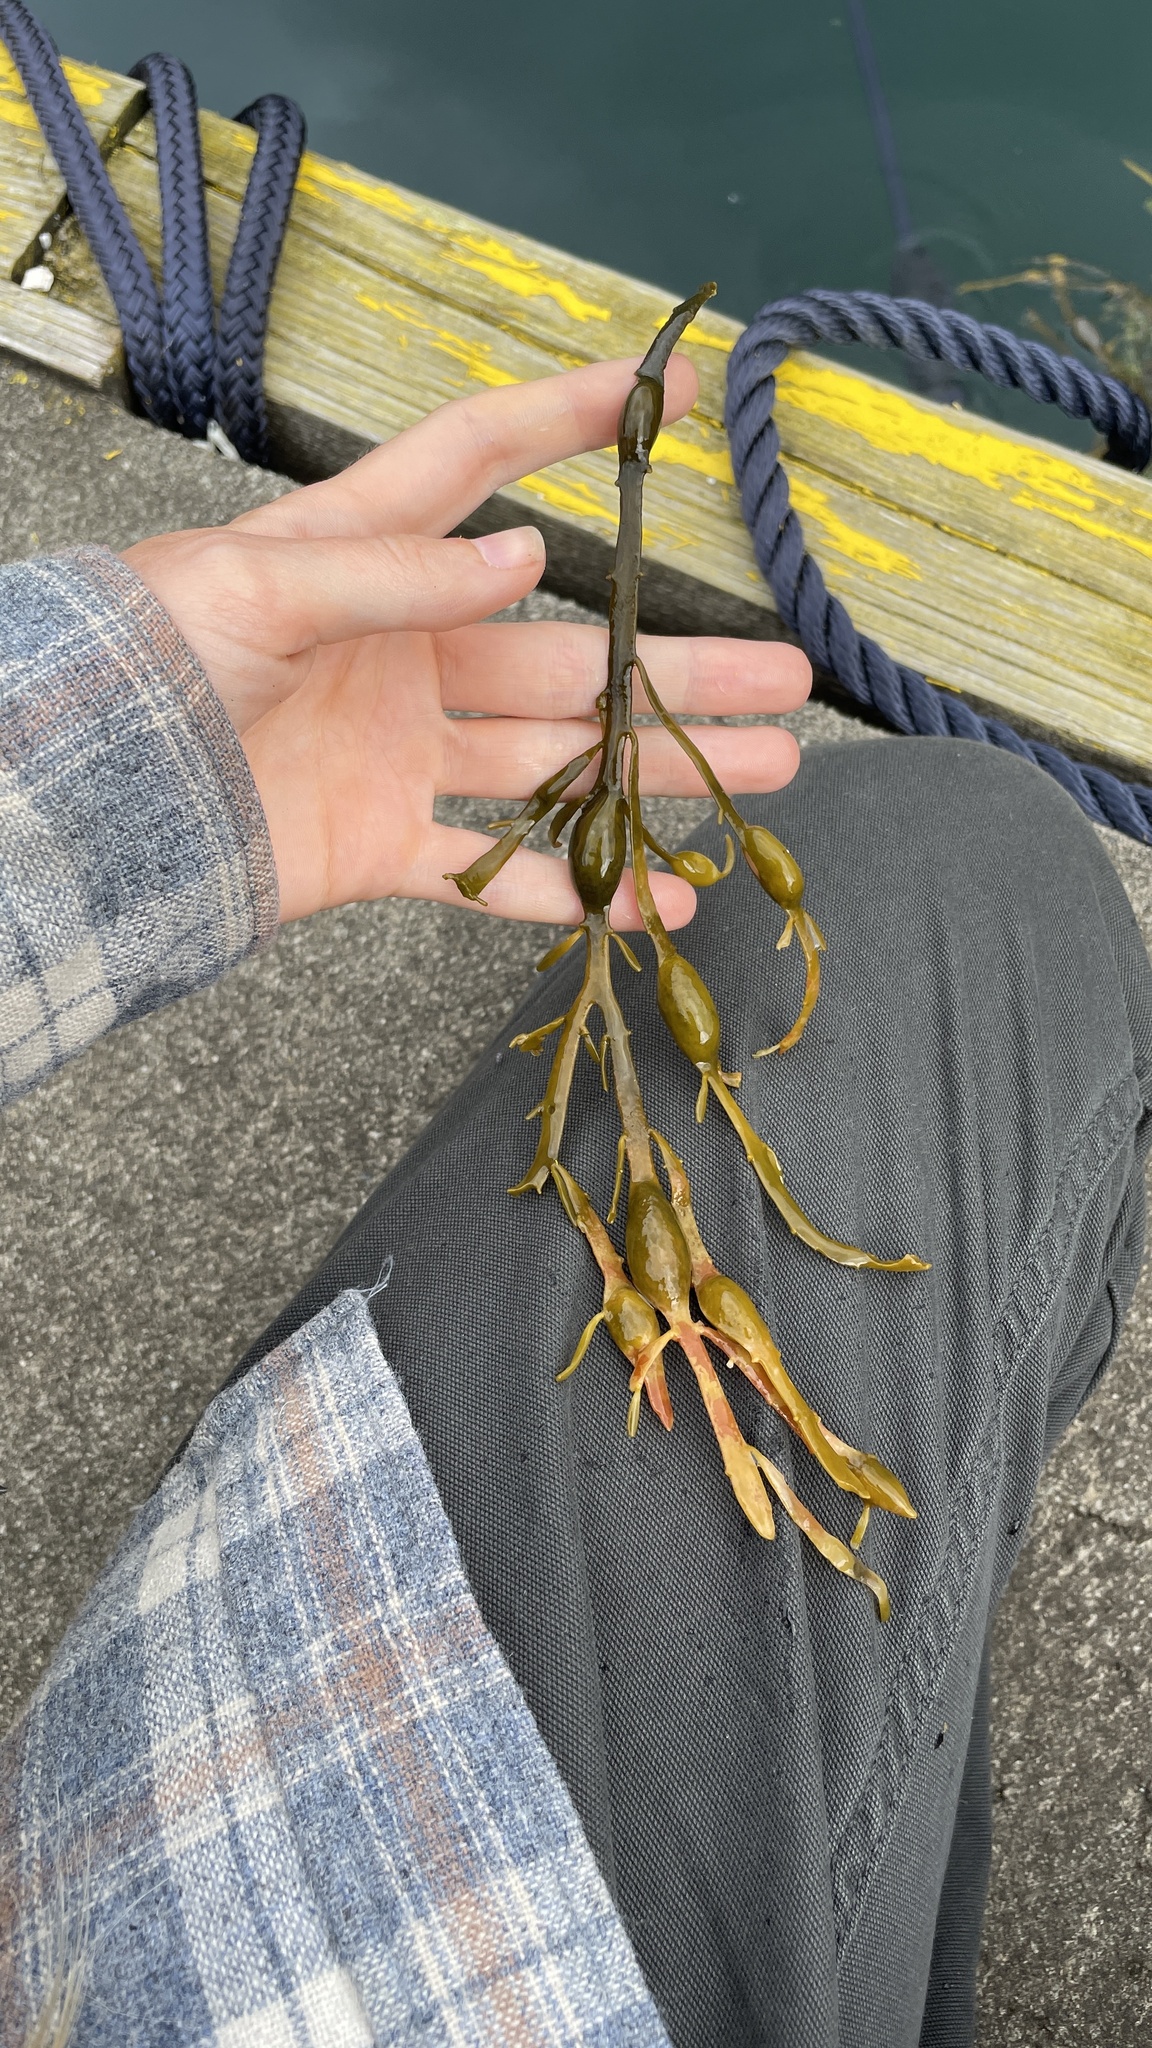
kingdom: Chromista
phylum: Ochrophyta
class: Phaeophyceae
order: Fucales
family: Fucaceae
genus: Ascophyllum
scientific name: Ascophyllum nodosum
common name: Knotted wrack
